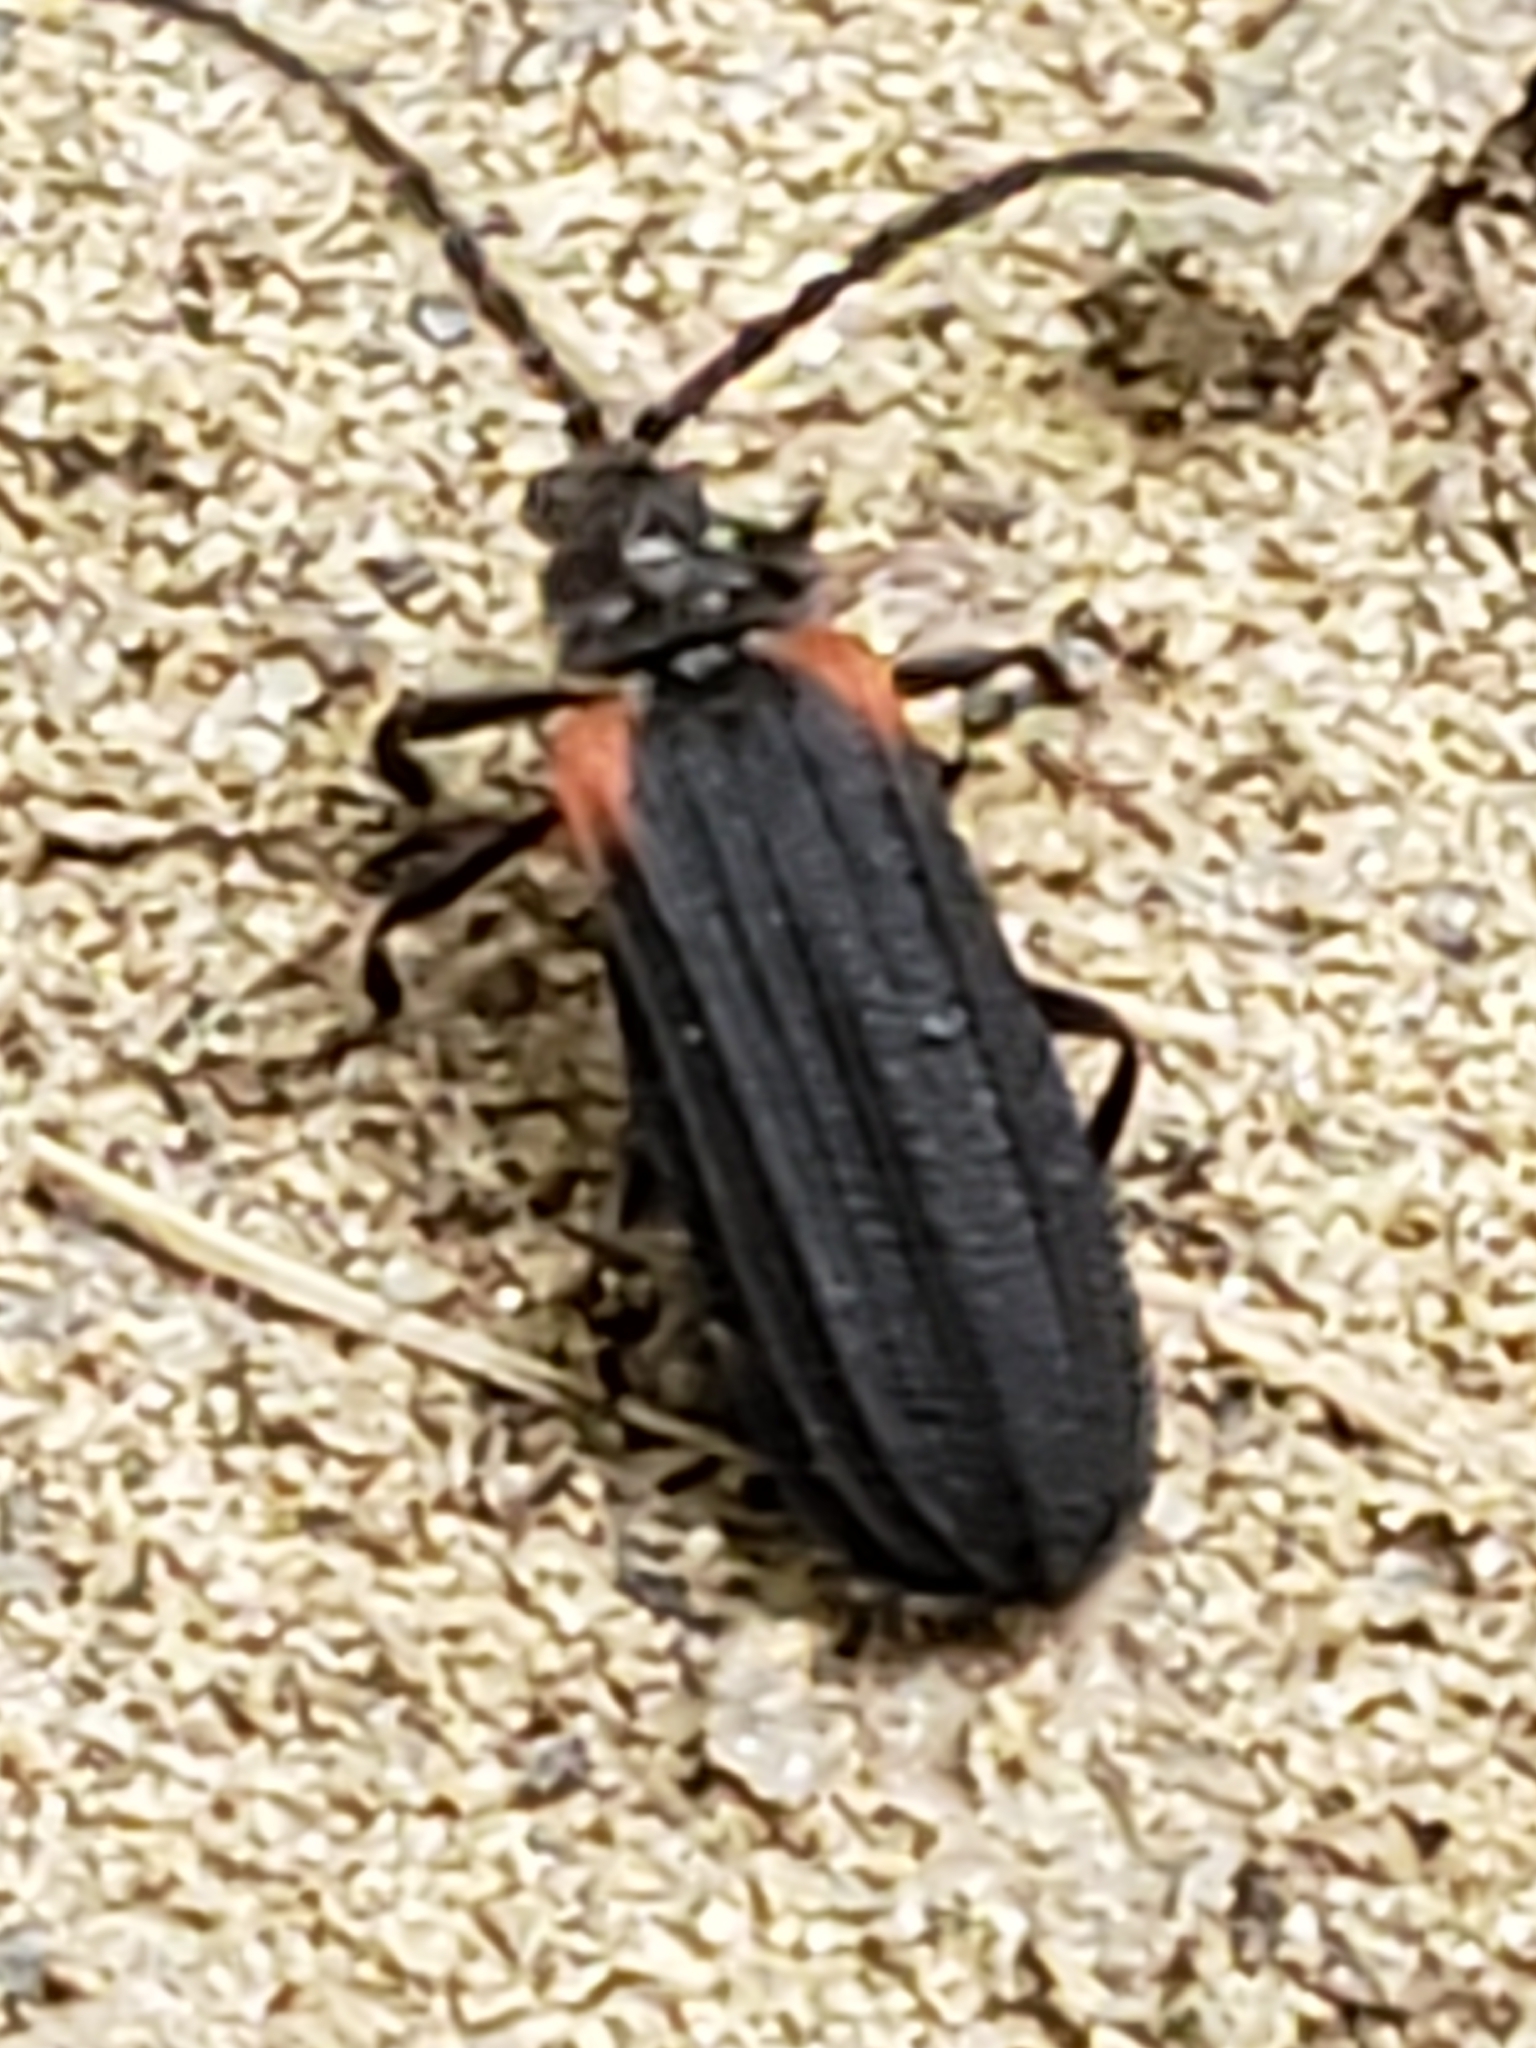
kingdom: Animalia
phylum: Arthropoda
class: Insecta
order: Coleoptera
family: Lycidae
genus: Greenarus
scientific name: Greenarus thoracicus
